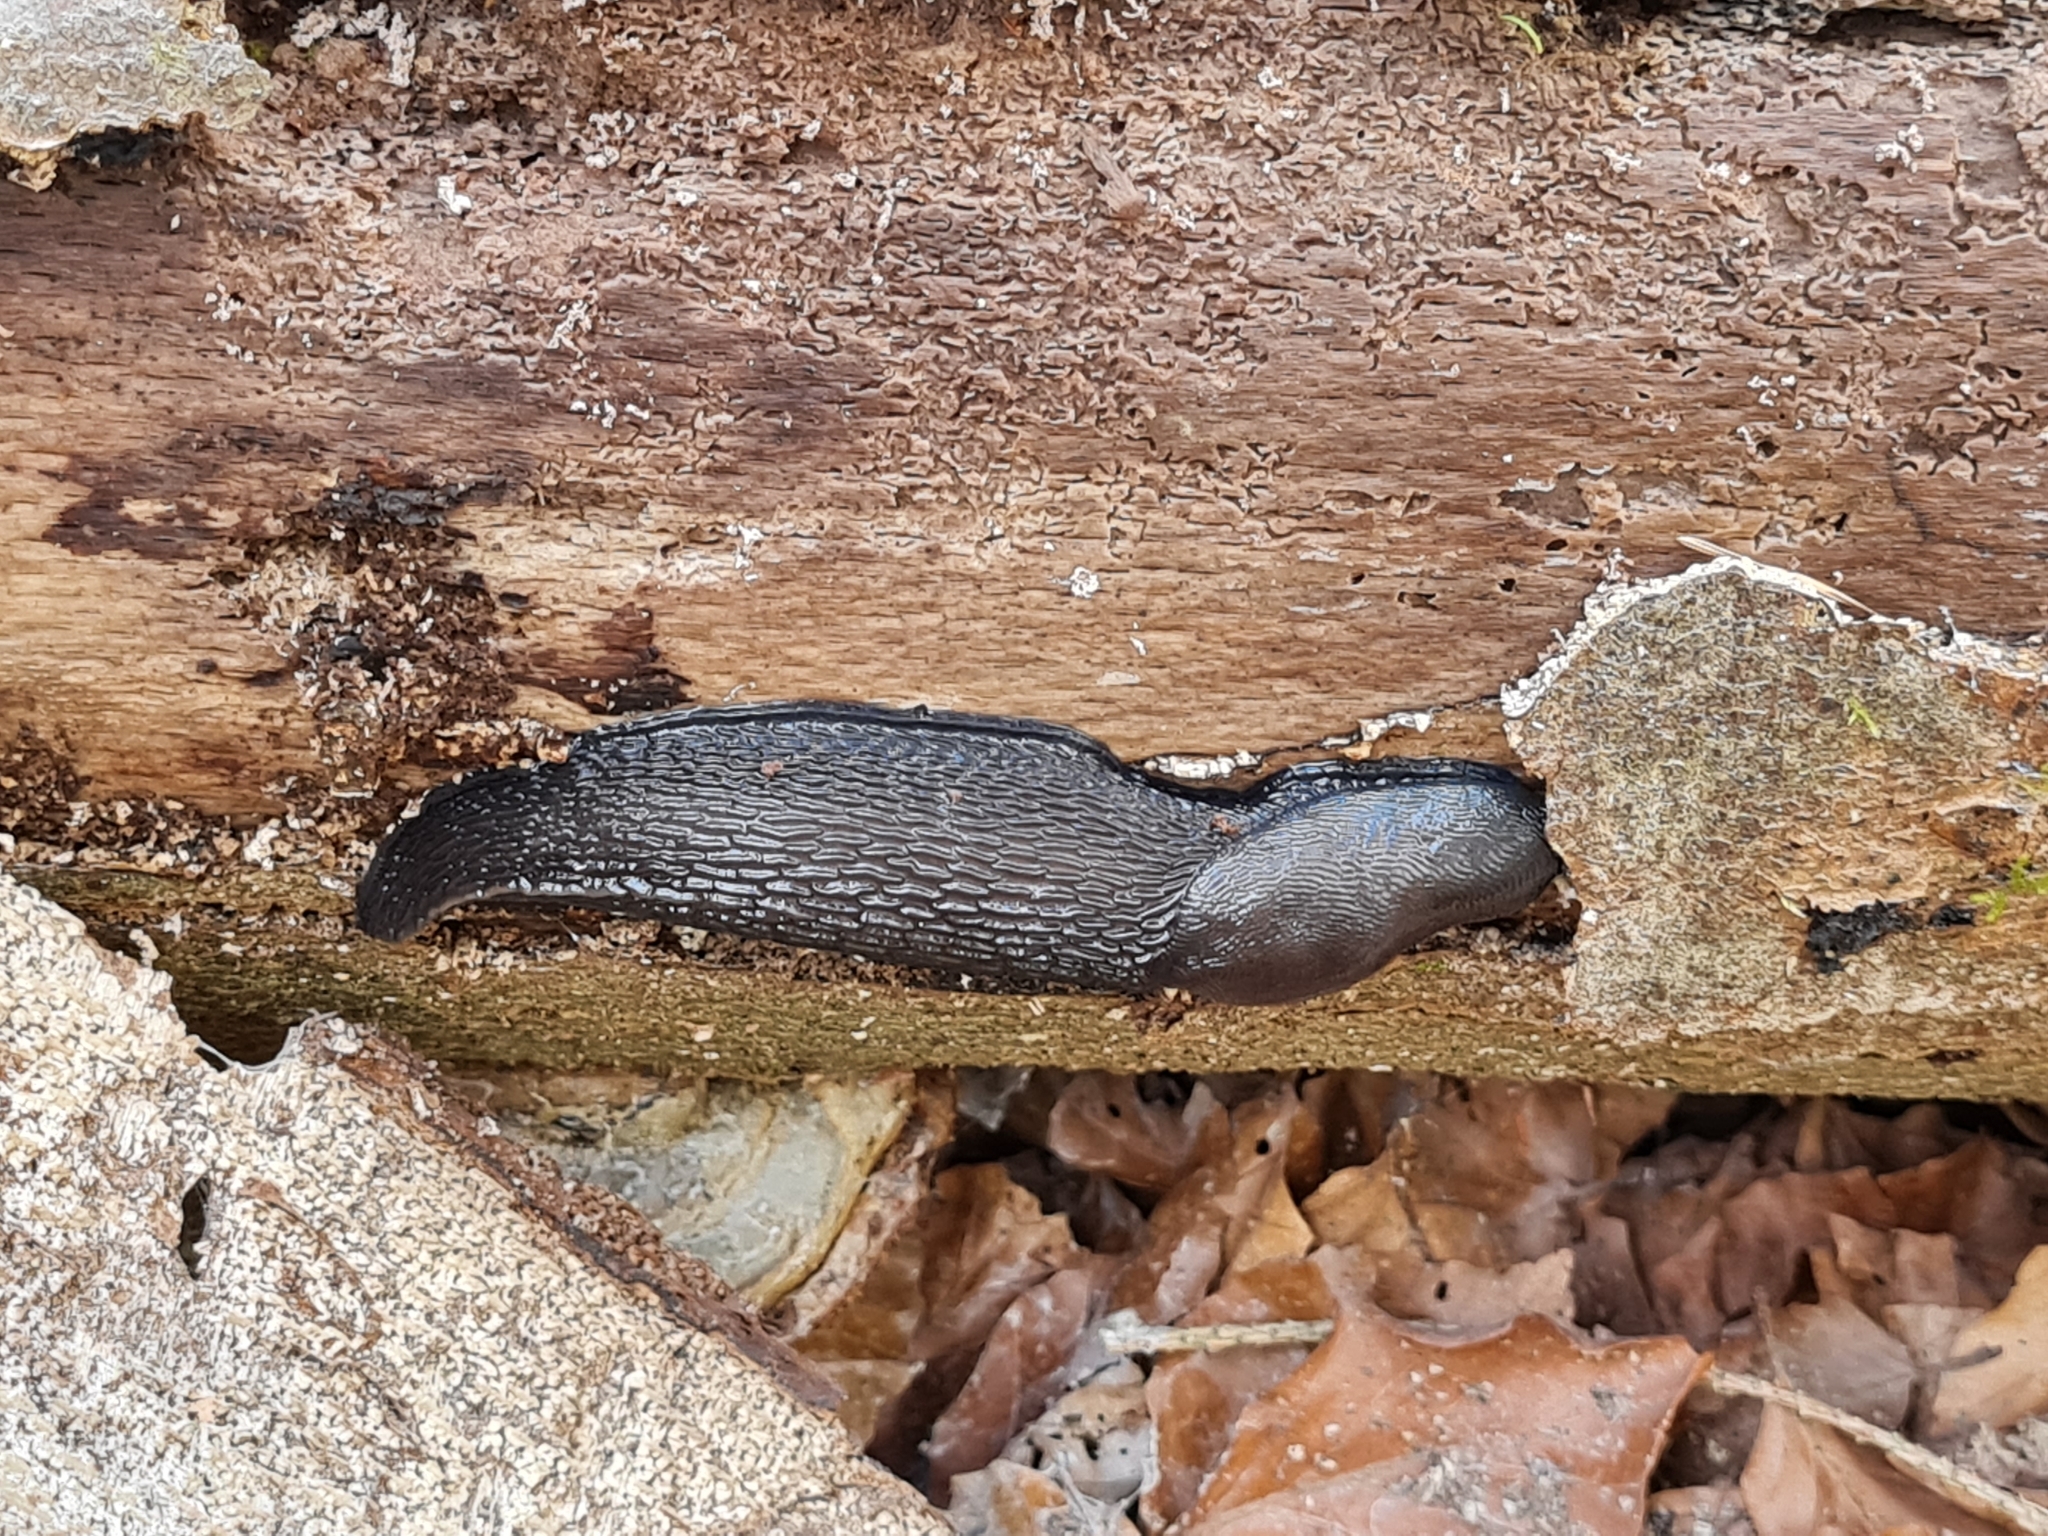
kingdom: Animalia
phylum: Mollusca
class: Gastropoda
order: Stylommatophora
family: Limacidae
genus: Limax
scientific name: Limax cinereoniger
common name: Ash-black slug
